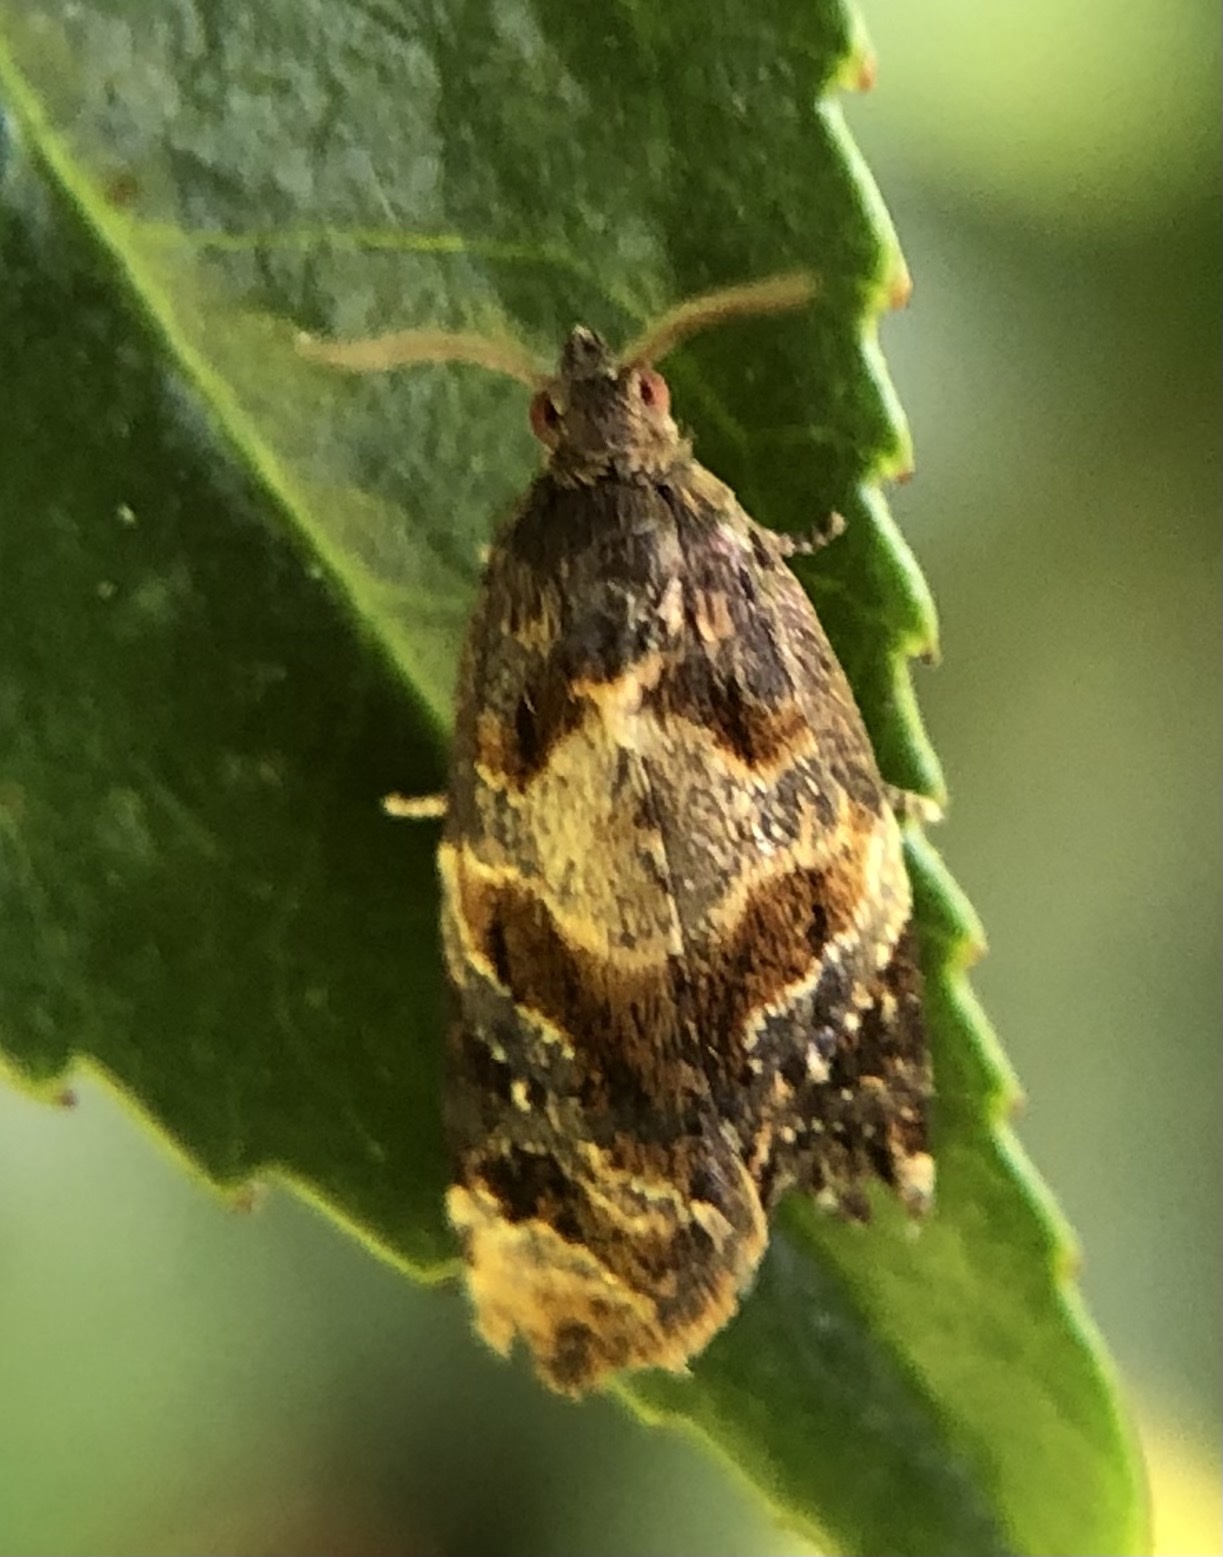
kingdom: Animalia
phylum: Arthropoda
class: Insecta
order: Lepidoptera
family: Tortricidae
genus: Ditula
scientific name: Ditula angustiorana
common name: Red-barred tortrix
